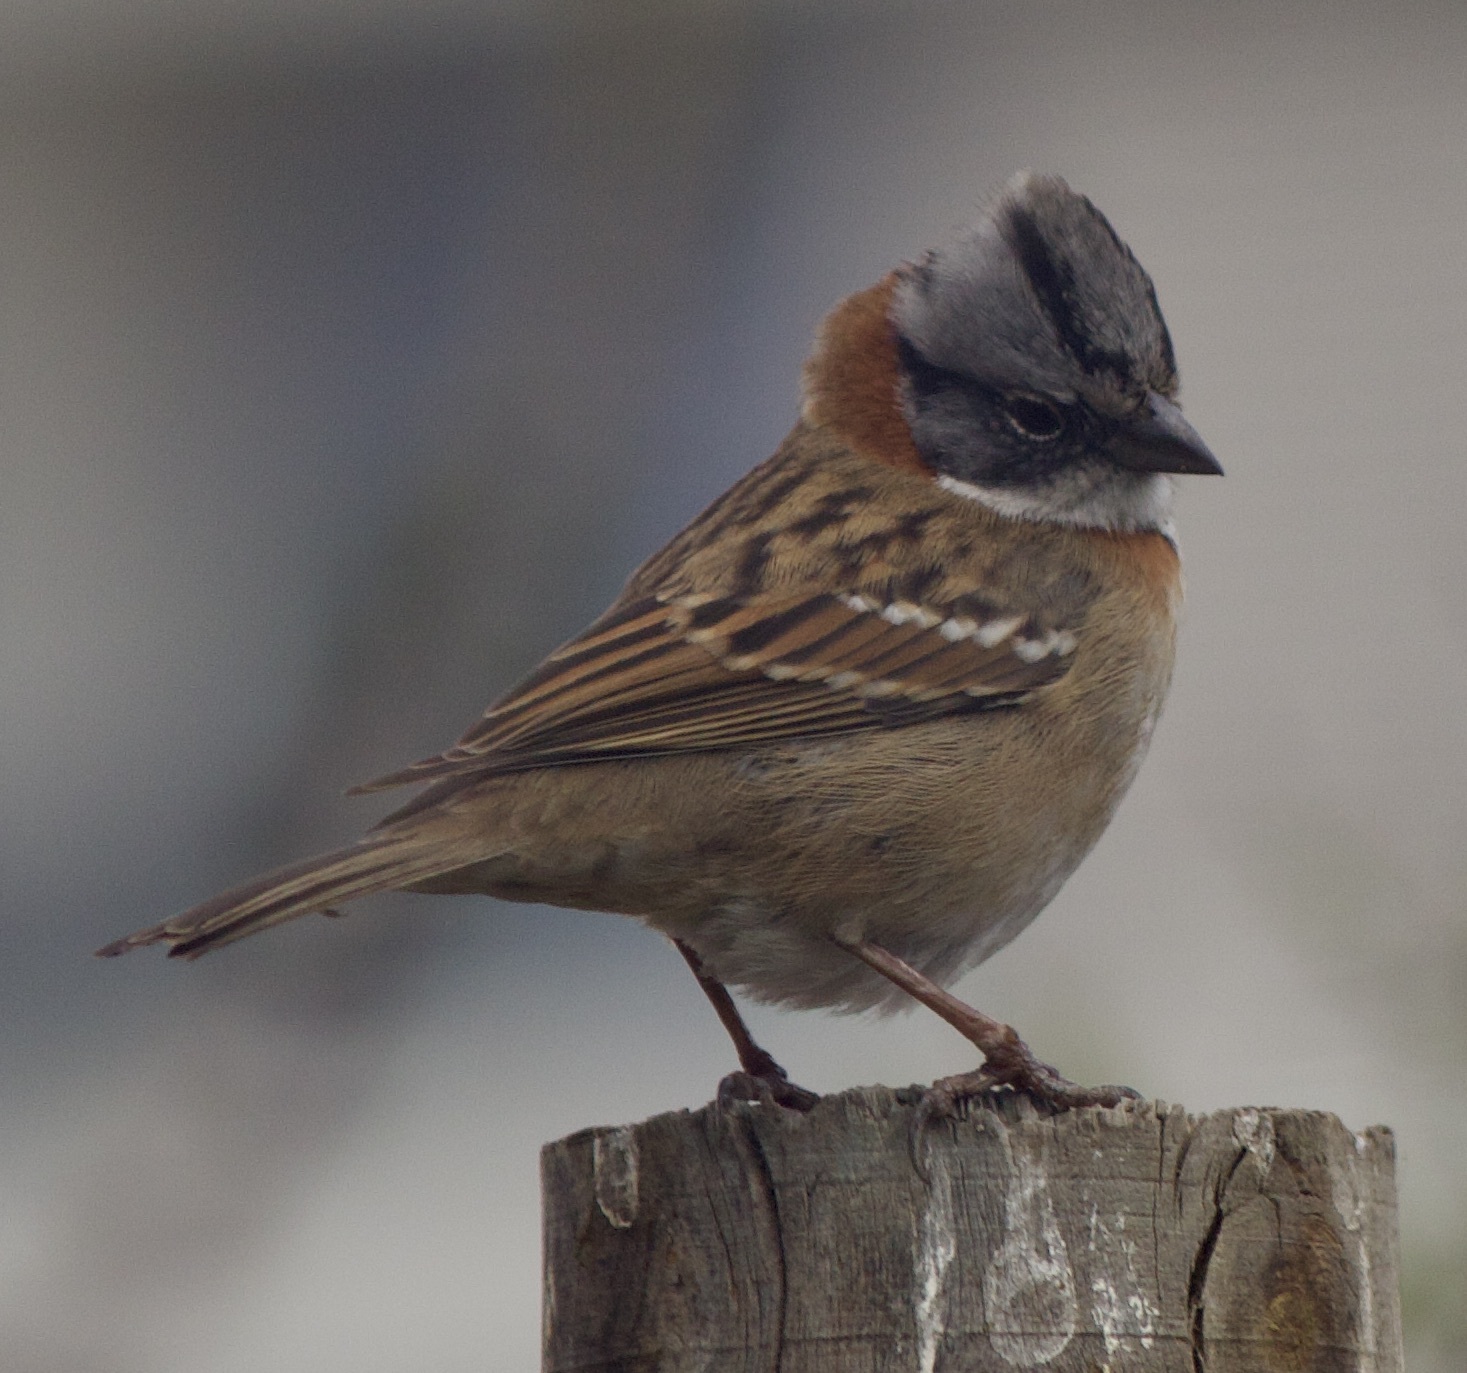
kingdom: Animalia
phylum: Chordata
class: Aves
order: Passeriformes
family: Passerellidae
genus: Zonotrichia
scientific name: Zonotrichia capensis
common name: Rufous-collared sparrow
